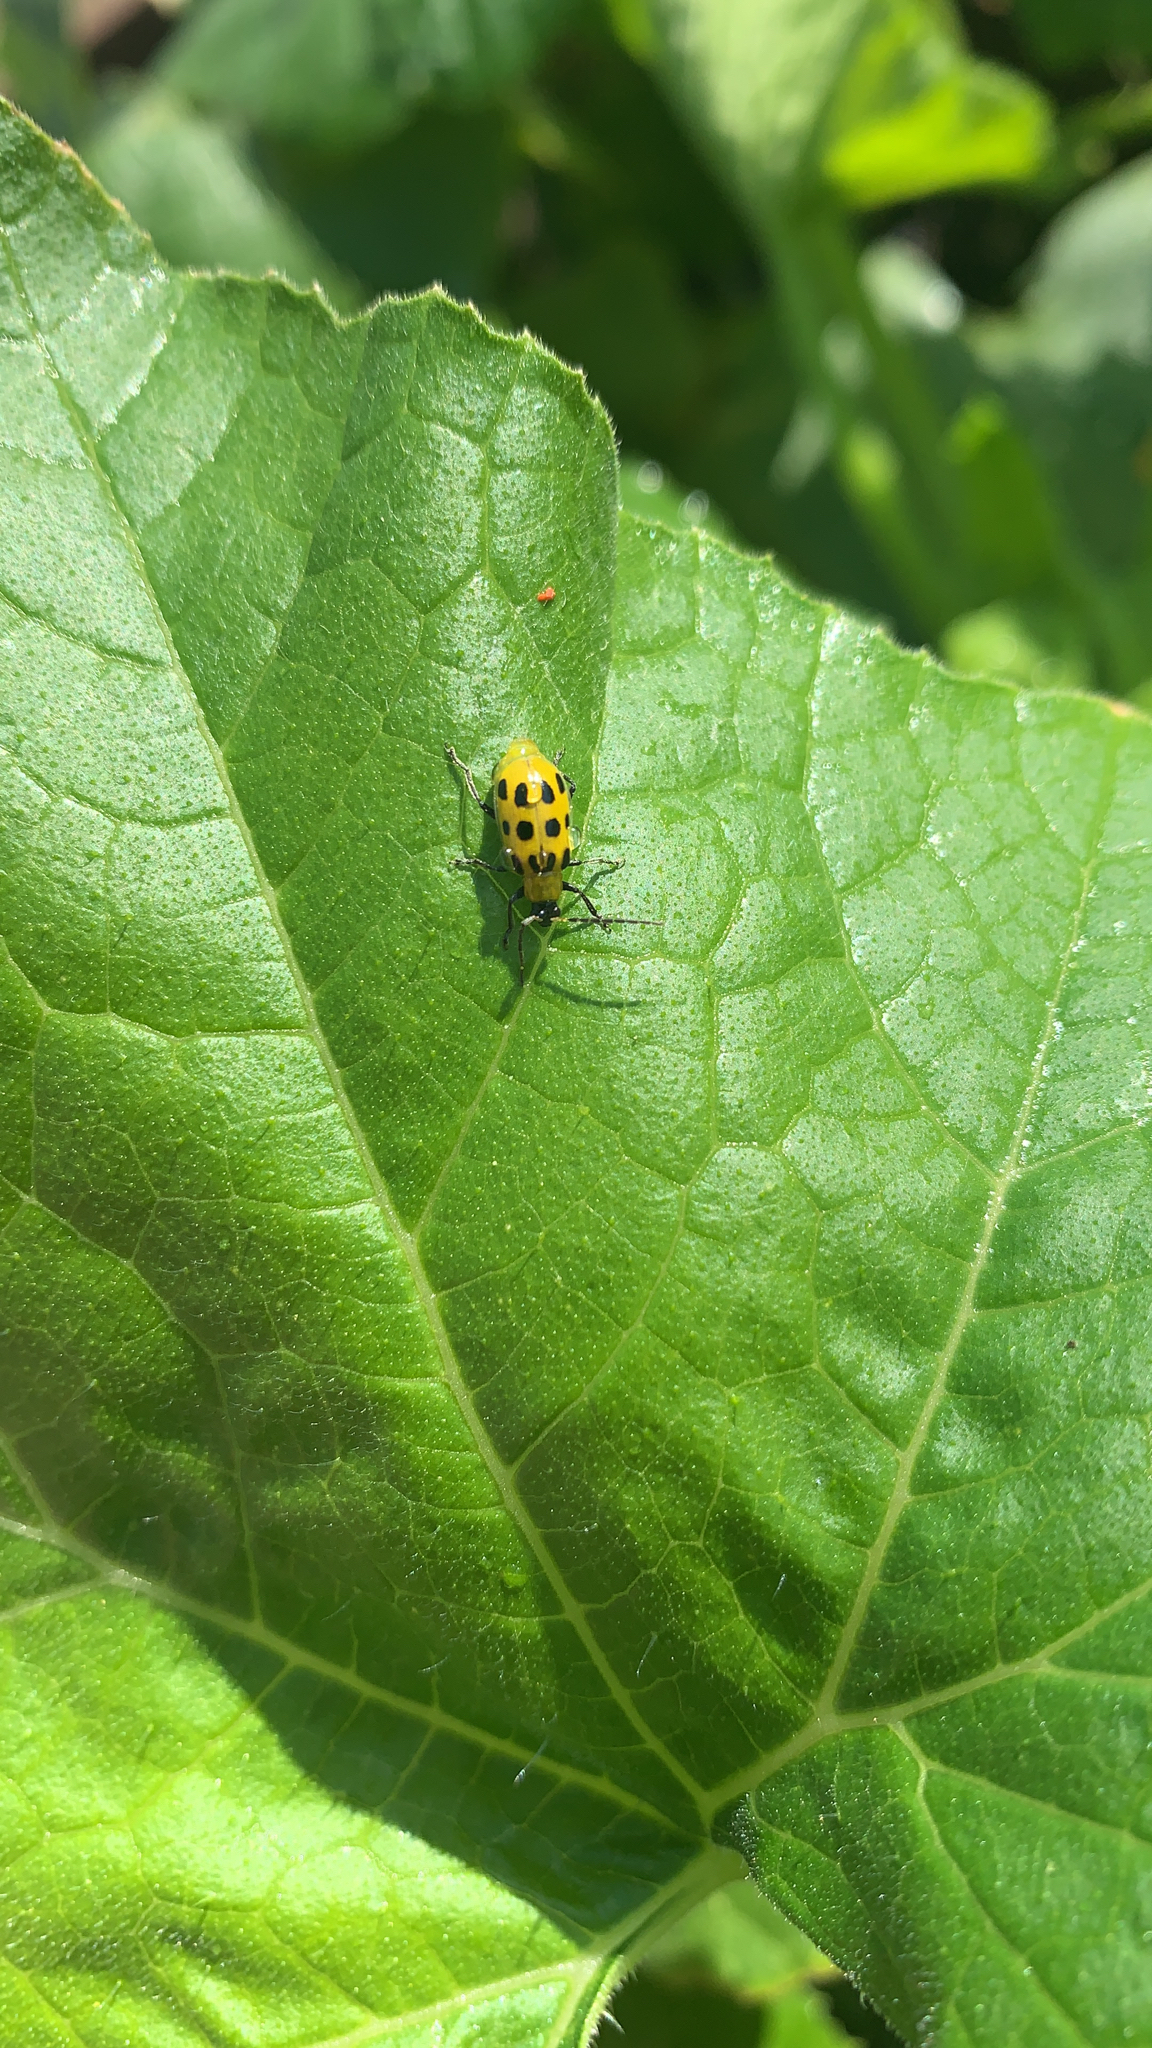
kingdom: Animalia
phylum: Arthropoda
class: Insecta
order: Coleoptera
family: Chrysomelidae
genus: Diabrotica
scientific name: Diabrotica undecimpunctata
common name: Spotted cucumber beetle
